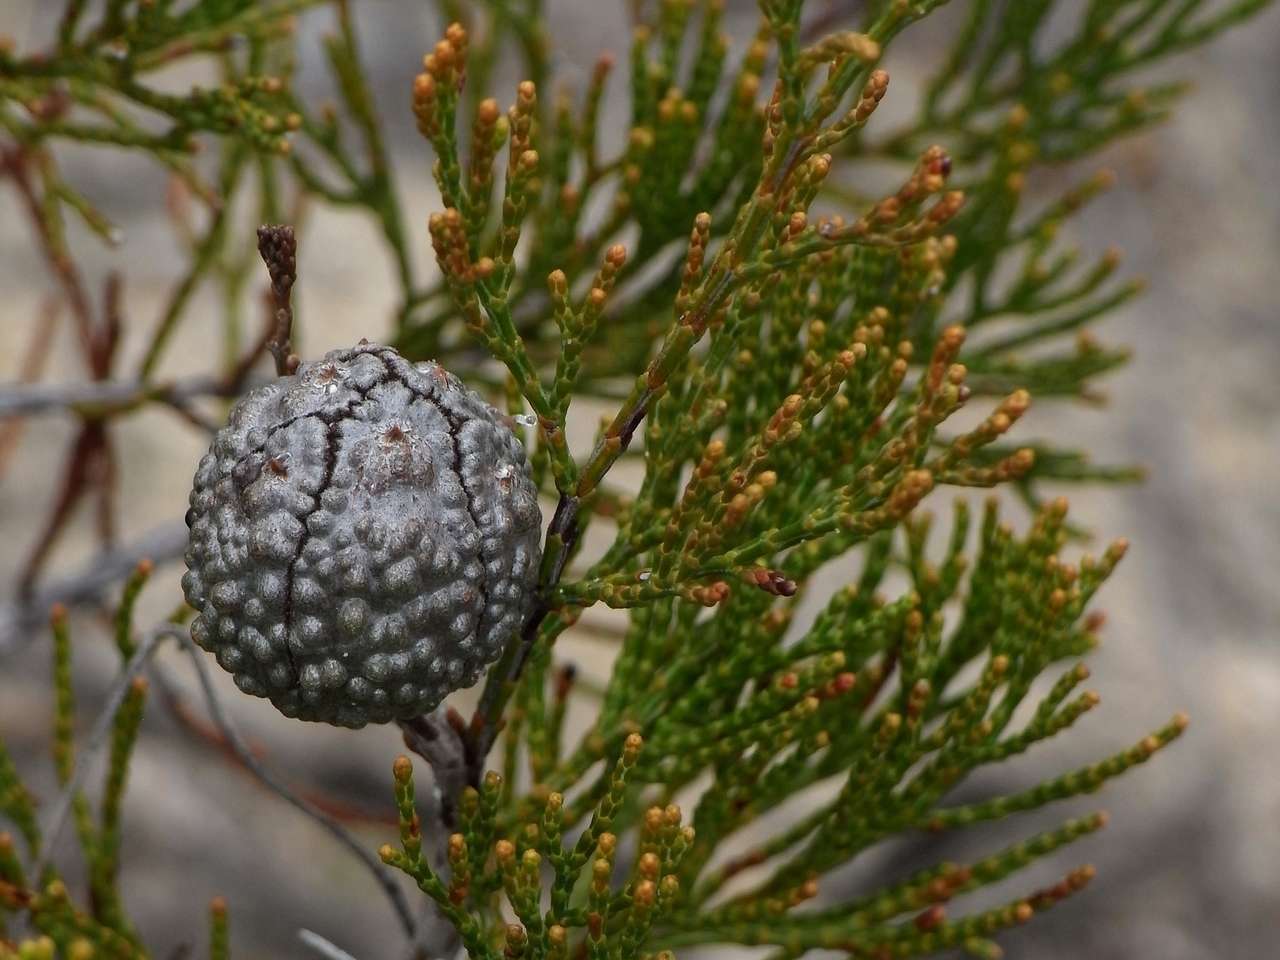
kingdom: Plantae
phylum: Tracheophyta
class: Pinopsida
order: Pinales
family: Cupressaceae
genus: Callitris
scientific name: Callitris verrucosa
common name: Scrub cypress-pine
